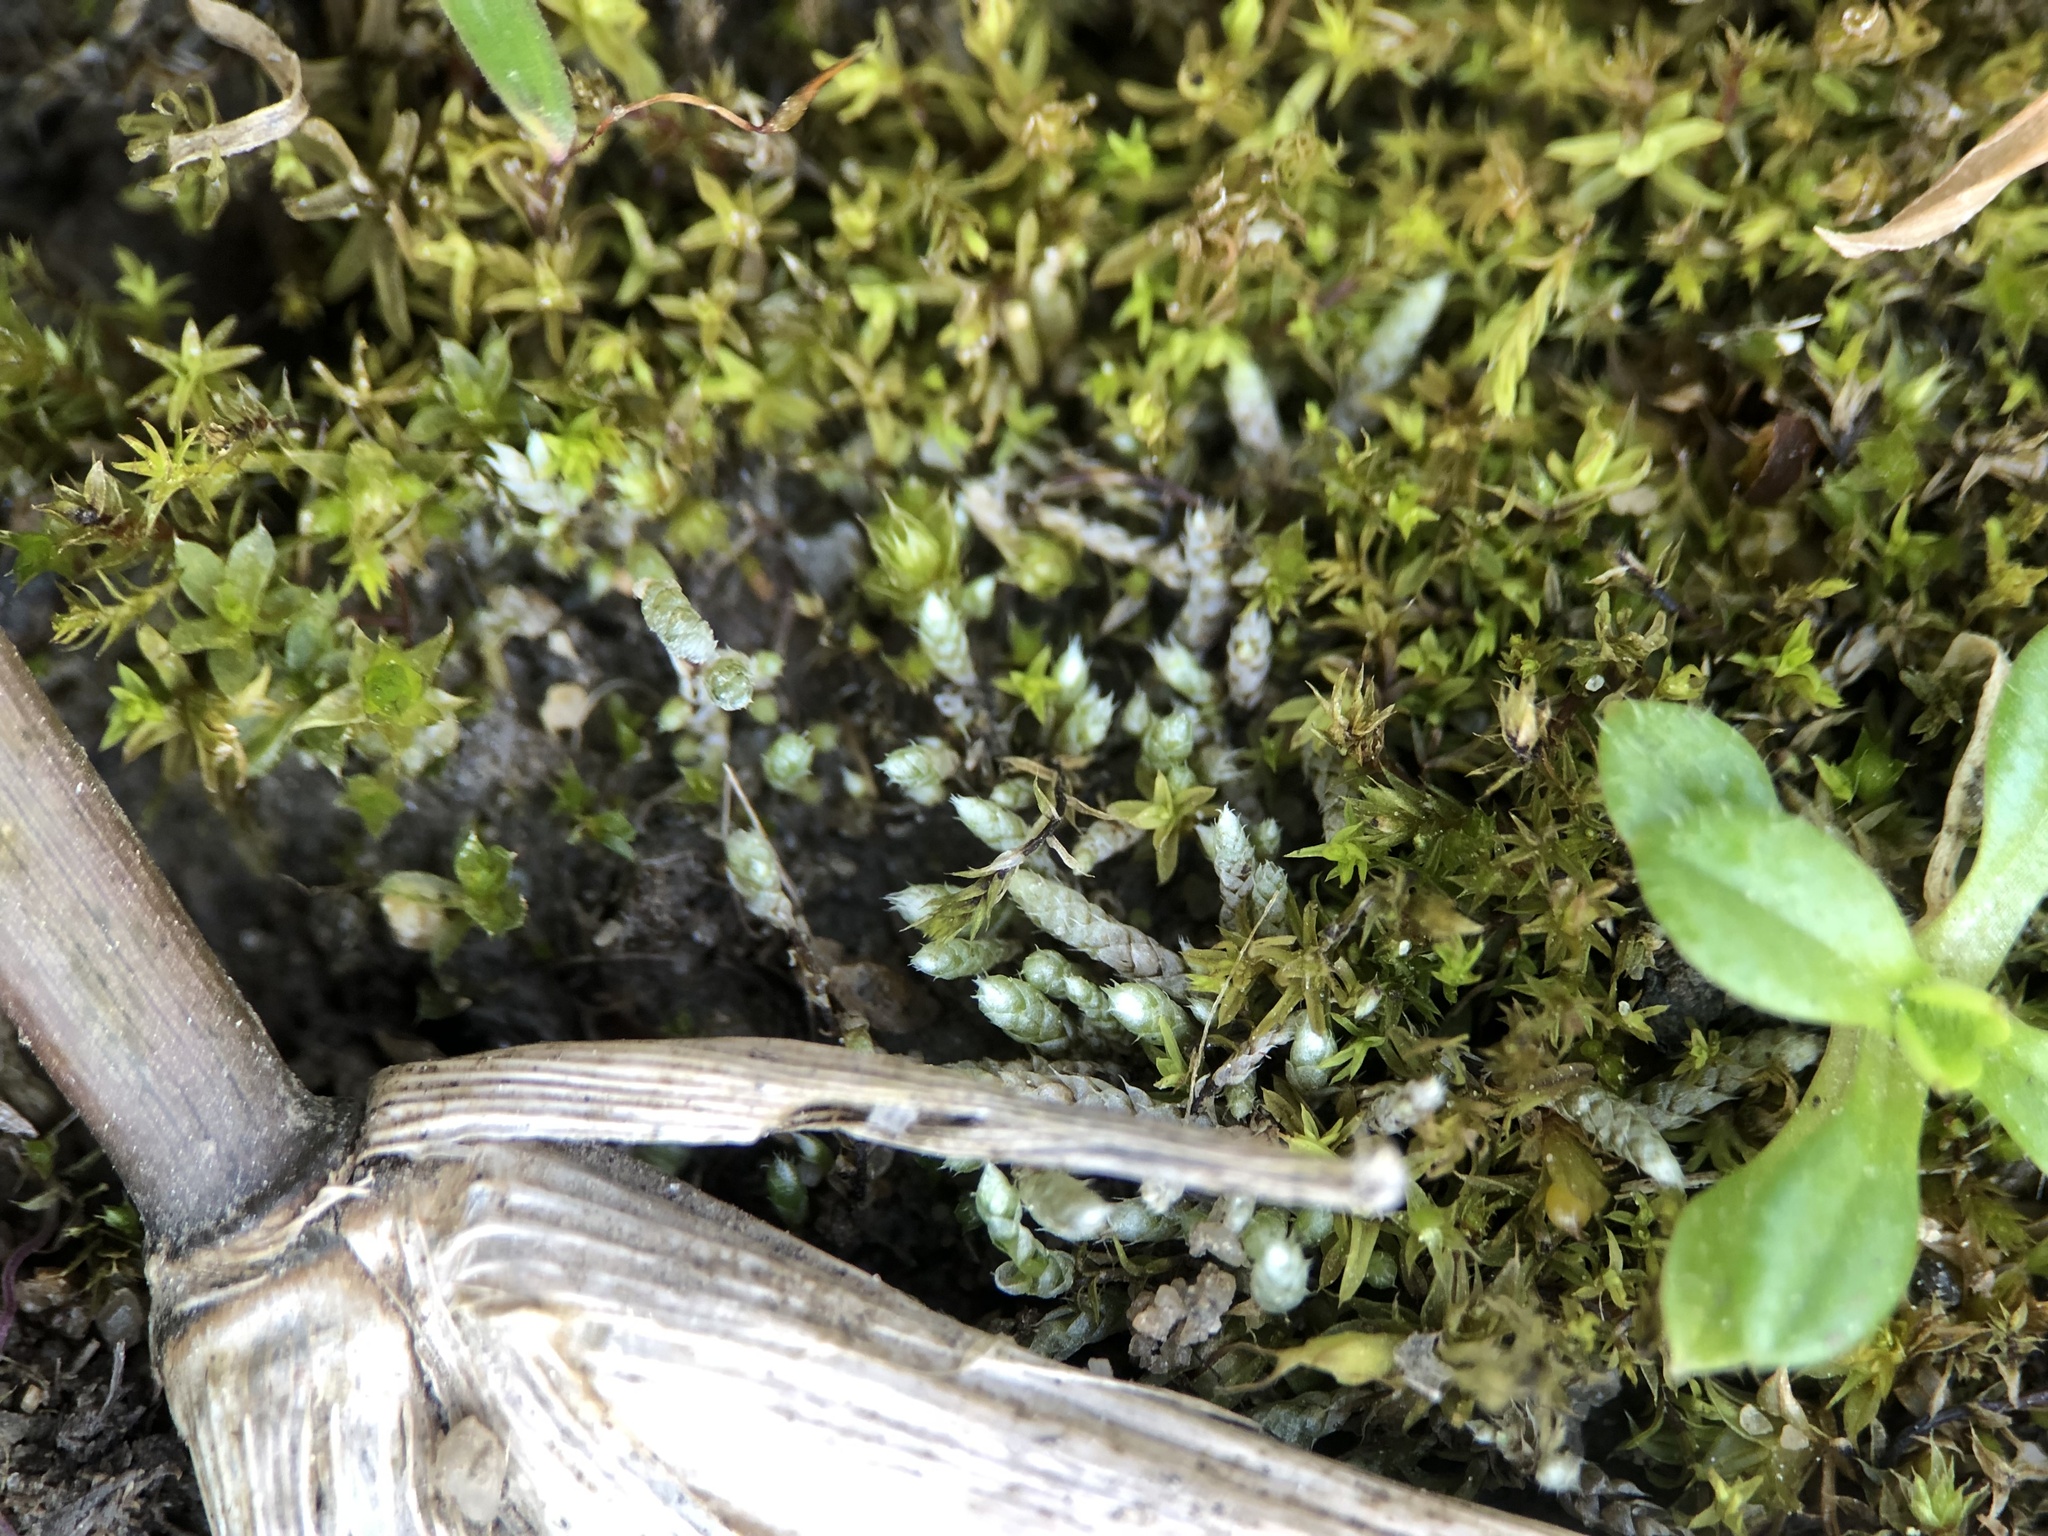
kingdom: Plantae
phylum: Bryophyta
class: Bryopsida
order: Bryales
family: Bryaceae
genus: Bryum
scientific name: Bryum argenteum
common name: Silver-moss
